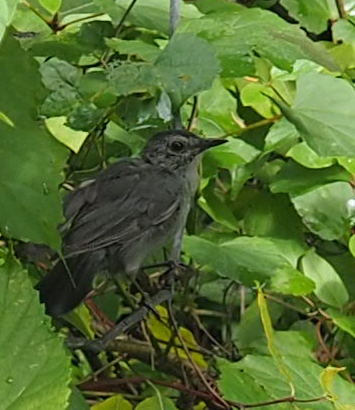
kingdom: Animalia
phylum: Chordata
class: Aves
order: Passeriformes
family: Mimidae
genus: Dumetella
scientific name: Dumetella carolinensis
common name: Gray catbird
